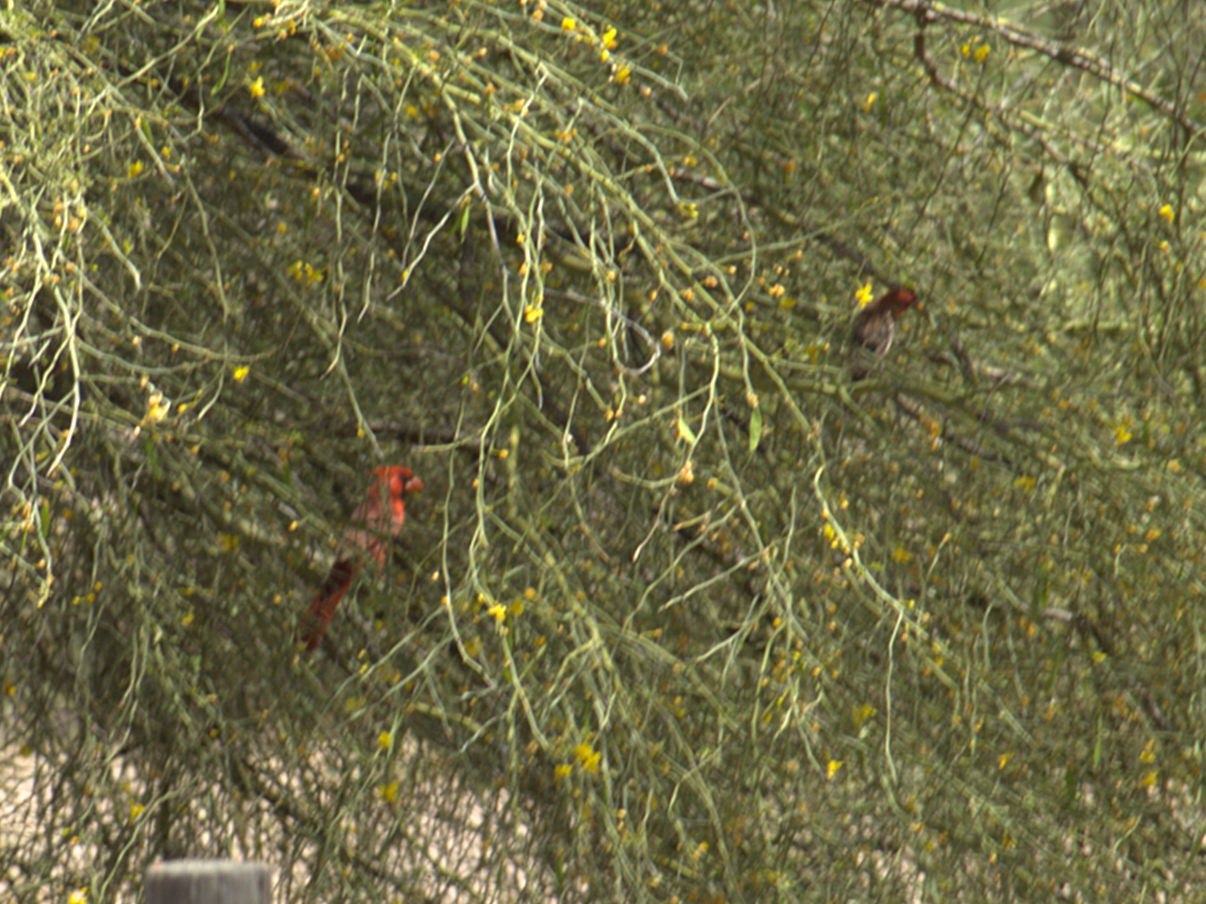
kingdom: Animalia
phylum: Chordata
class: Aves
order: Passeriformes
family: Cardinalidae
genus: Cardinalis
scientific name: Cardinalis cardinalis
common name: Northern cardinal
